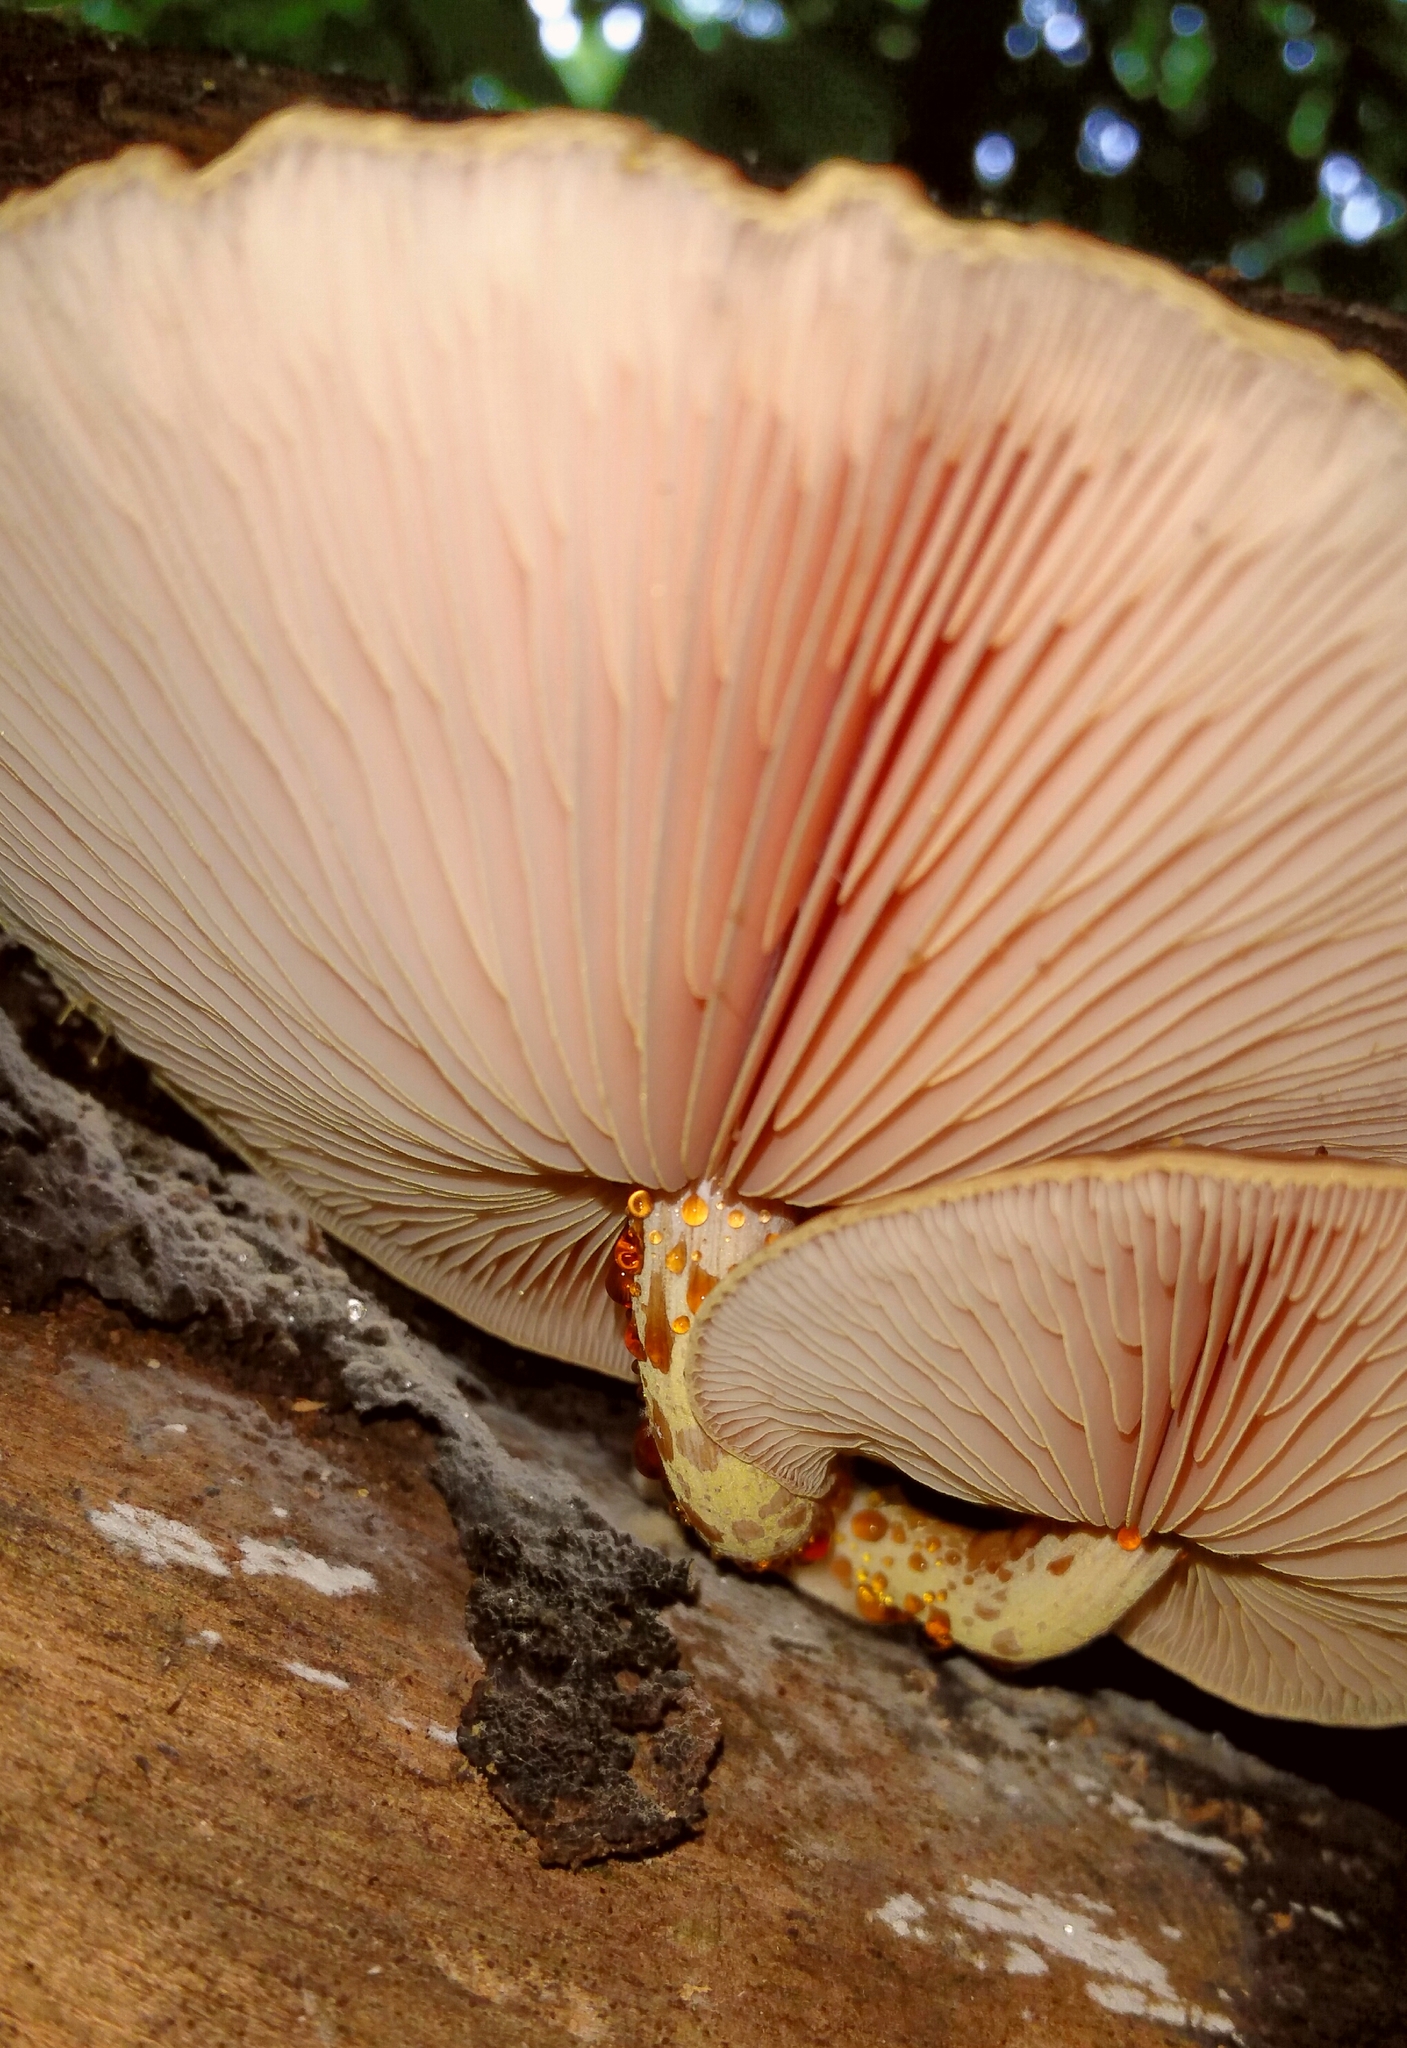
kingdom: Fungi
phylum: Basidiomycota
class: Agaricomycetes
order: Agaricales
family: Physalacriaceae
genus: Rhodotus
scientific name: Rhodotus palmatus
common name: Wrinkled peach
